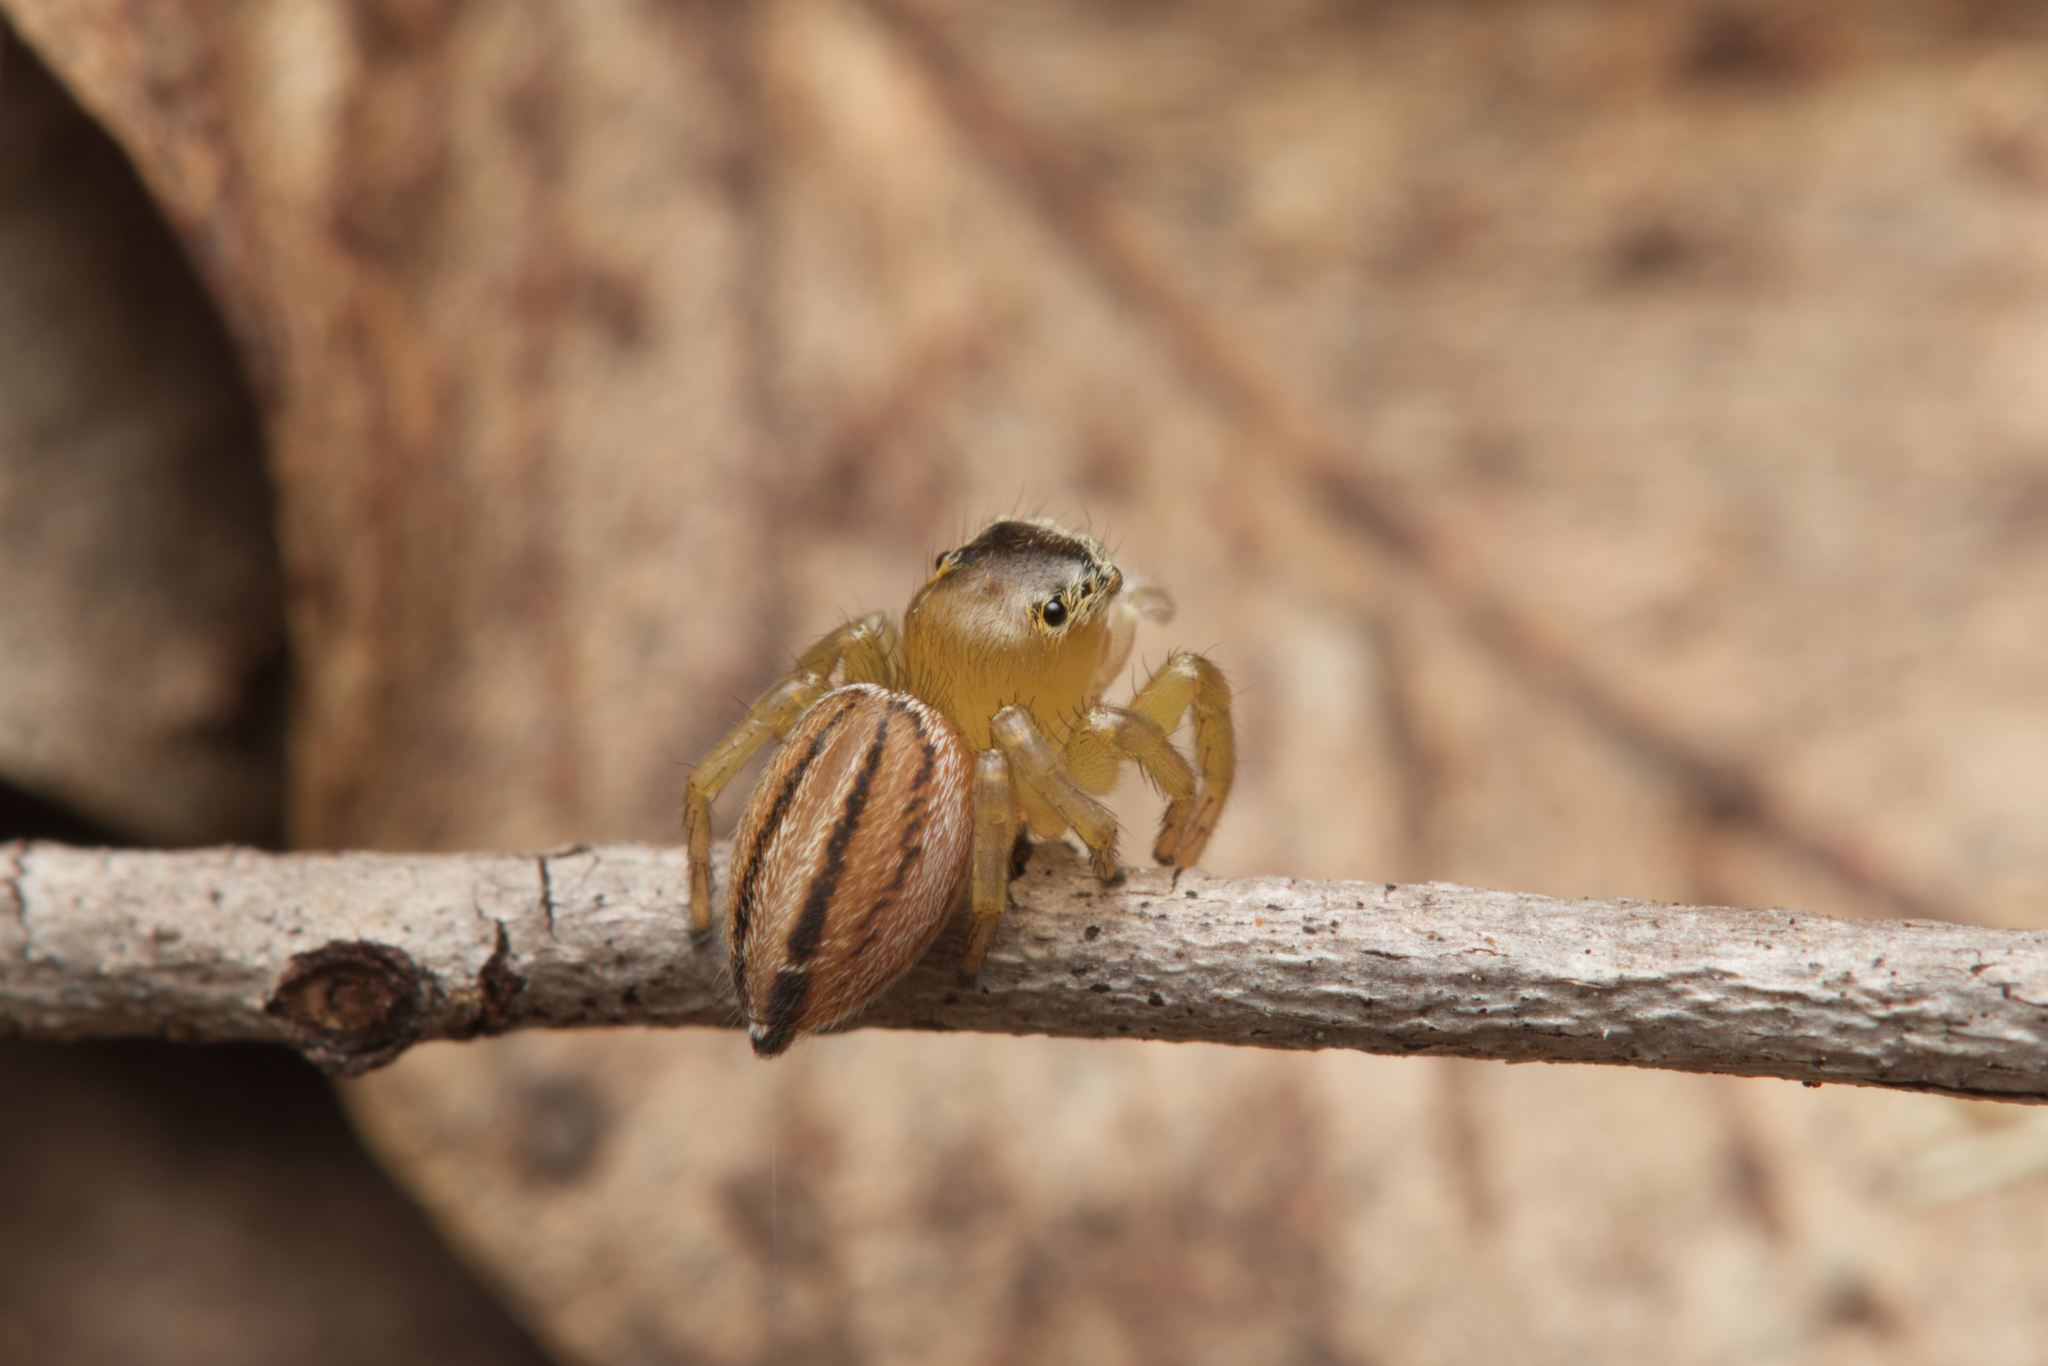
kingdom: Animalia
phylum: Arthropoda
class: Arachnida
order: Araneae
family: Salticidae
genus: Maratus
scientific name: Maratus scutulatus
